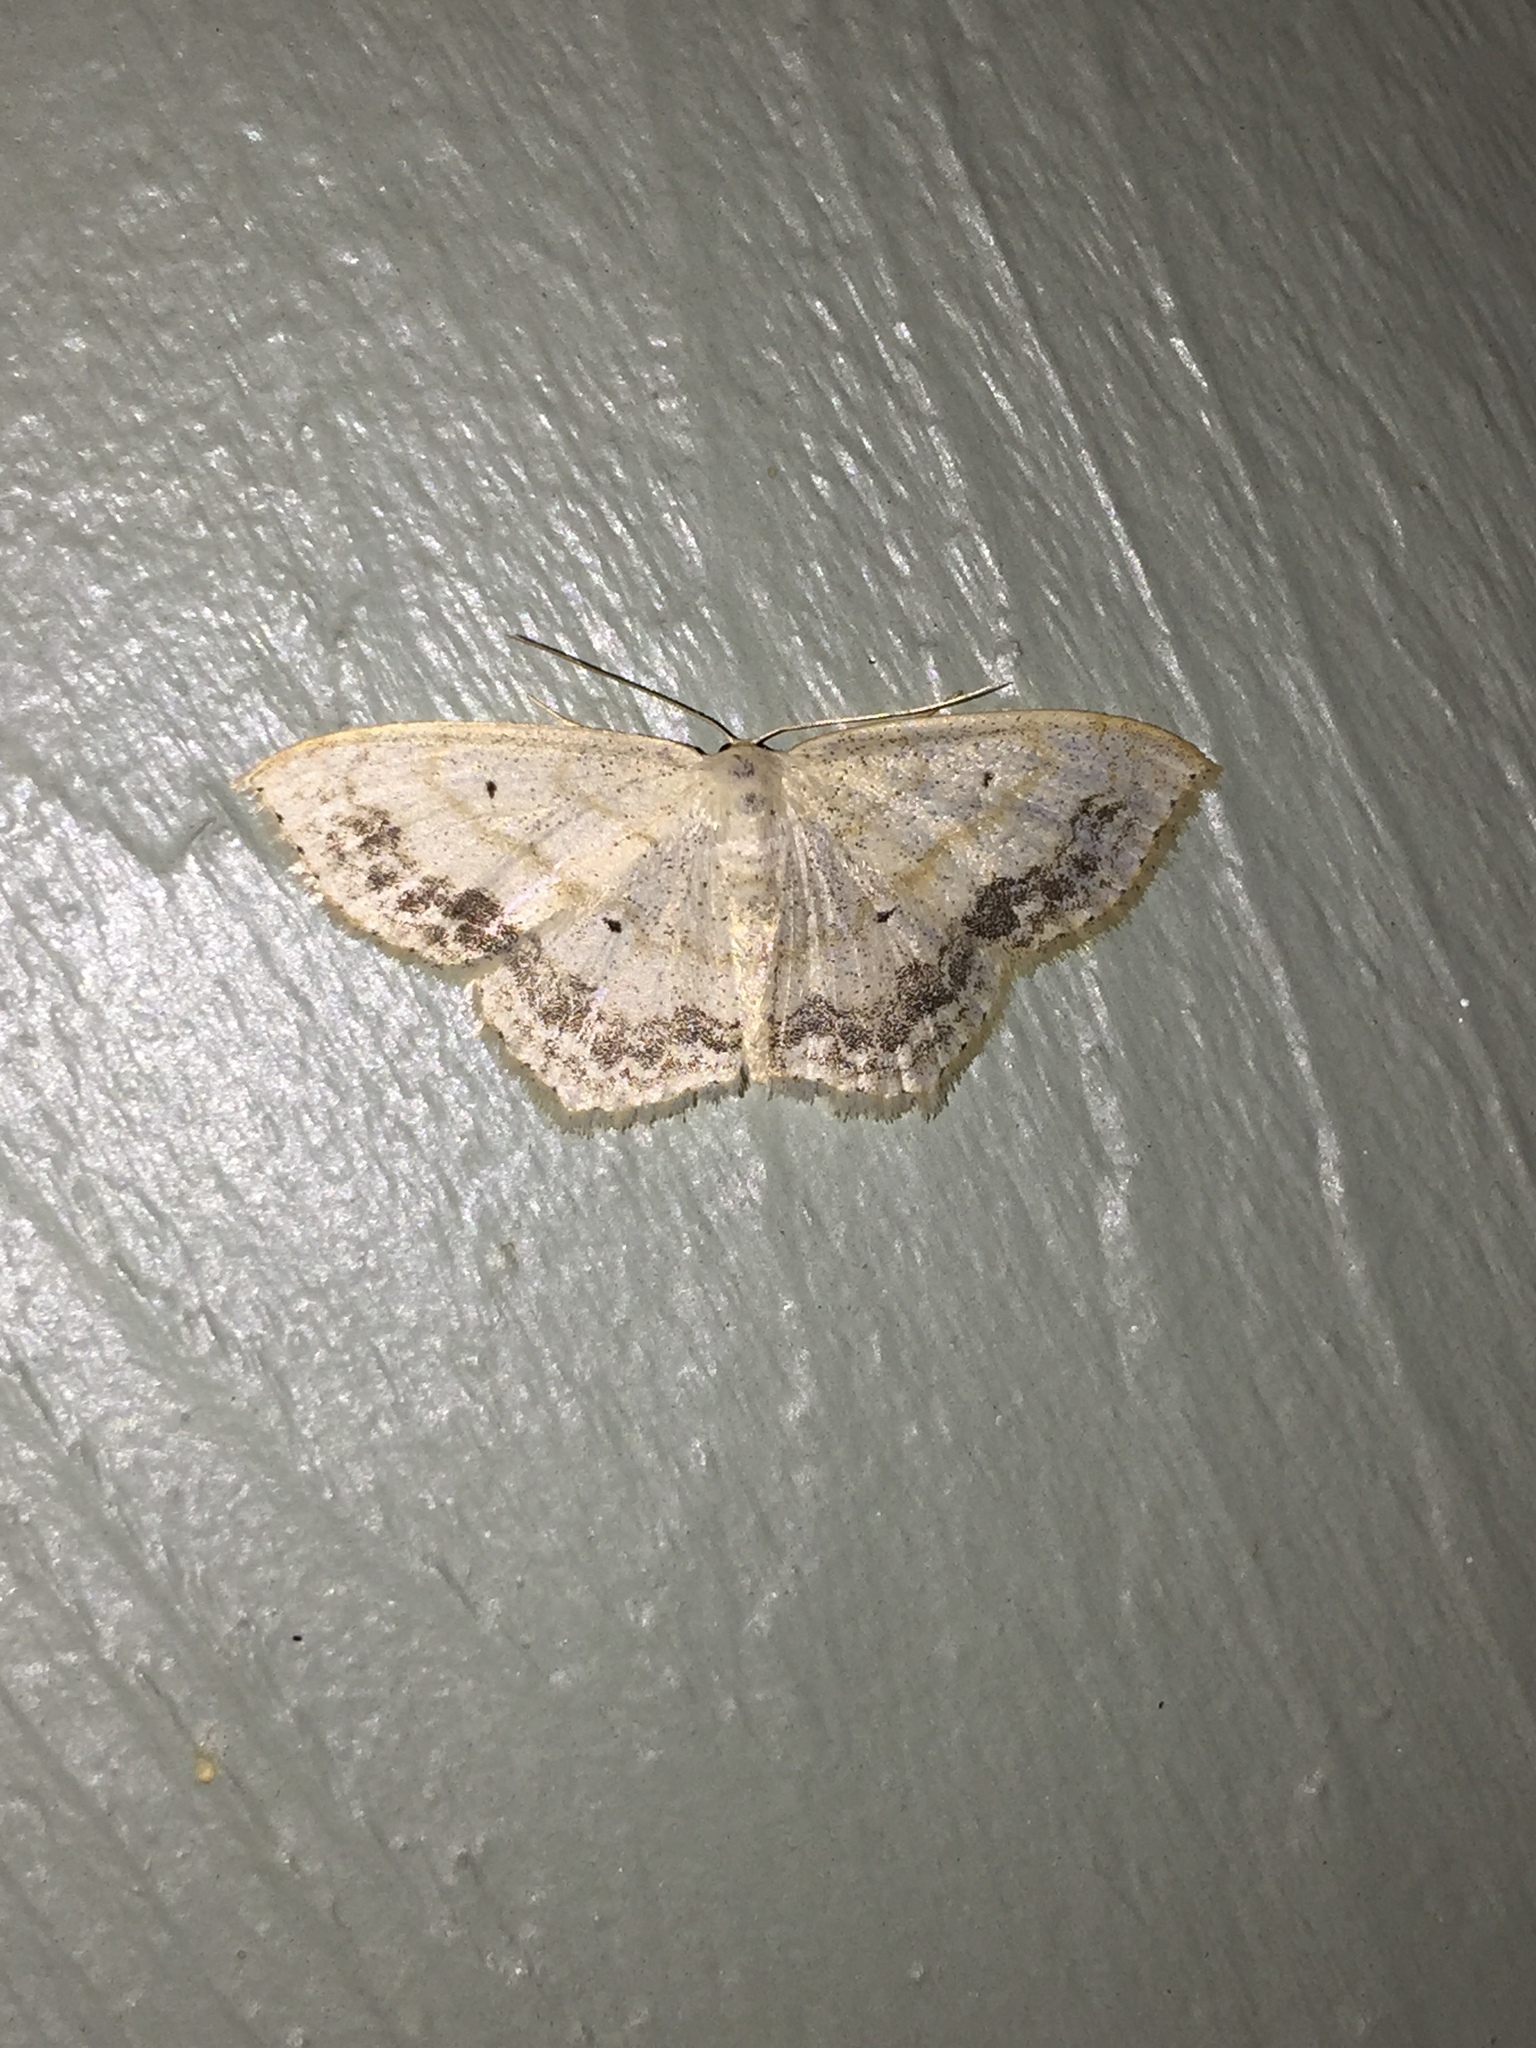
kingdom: Animalia
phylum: Arthropoda
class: Insecta
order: Lepidoptera
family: Geometridae
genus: Scopula
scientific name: Scopula limboundata
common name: Large lace border
